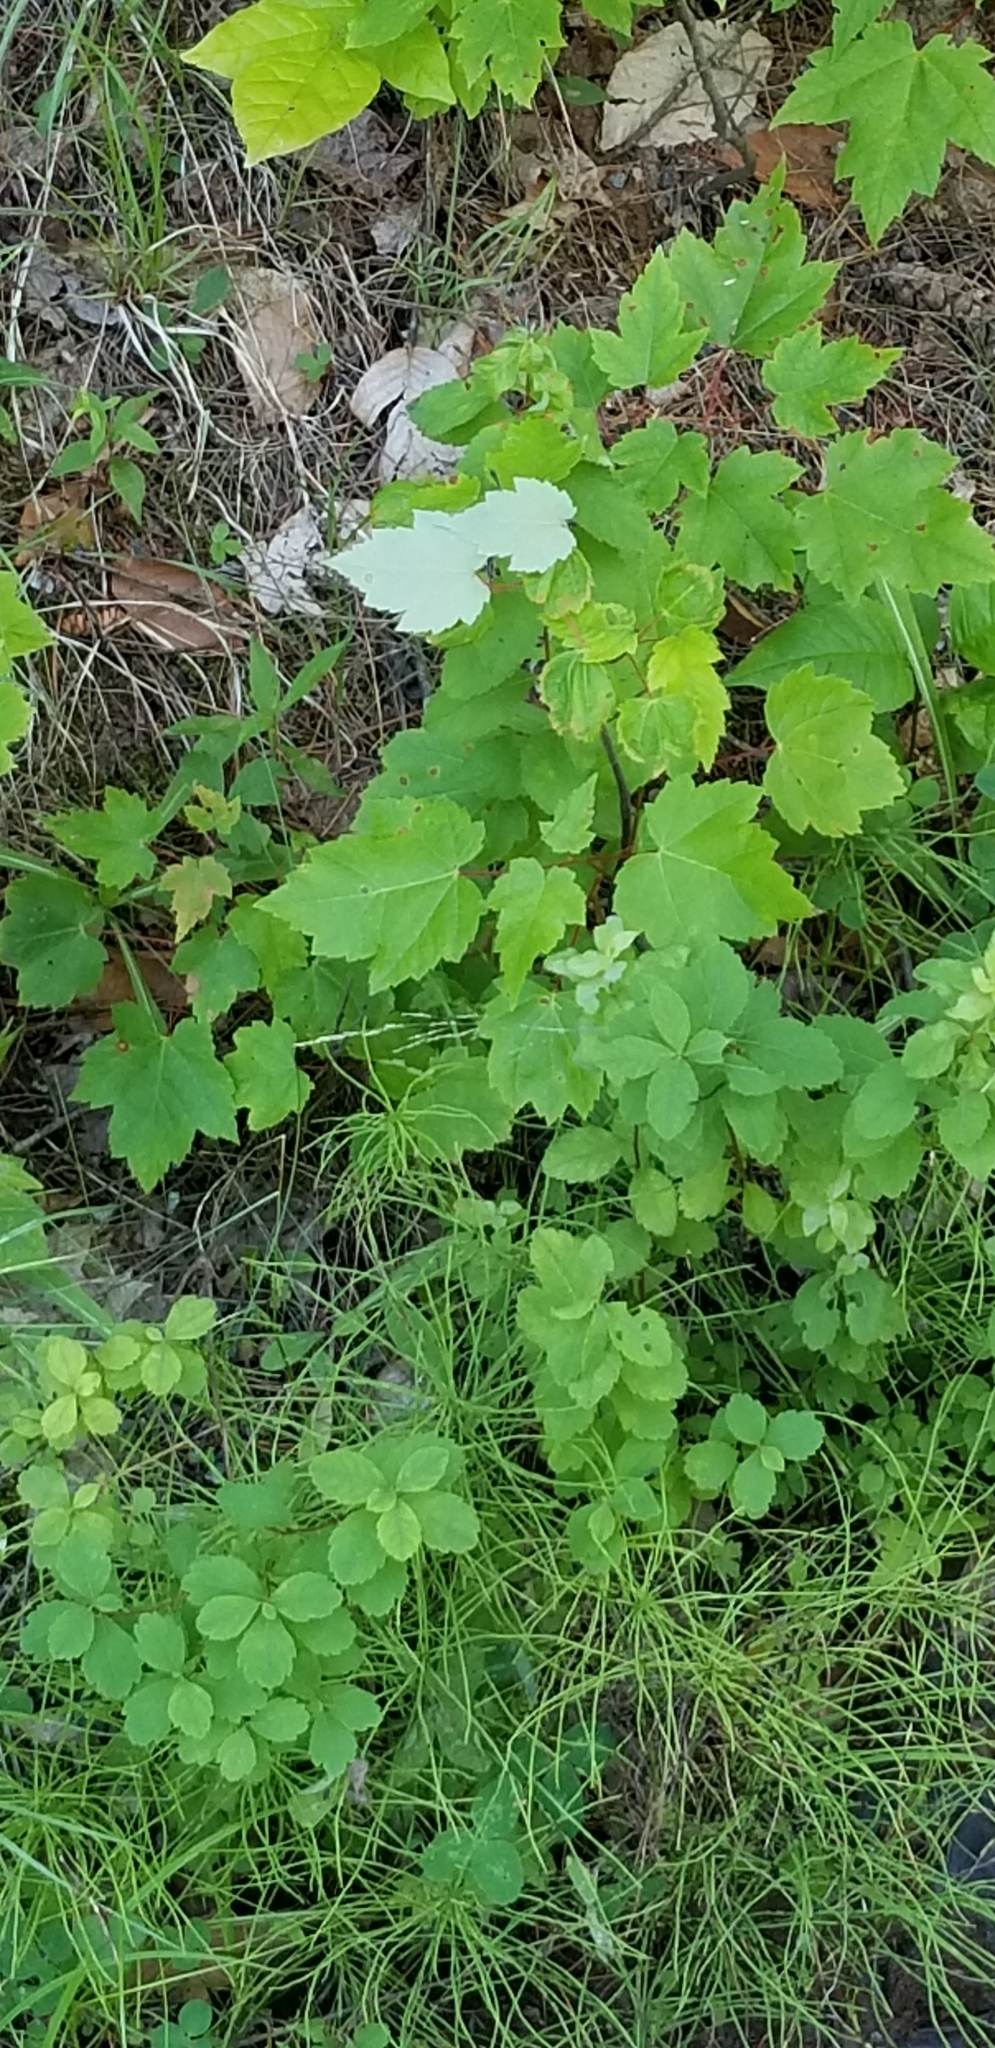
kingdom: Plantae
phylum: Tracheophyta
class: Magnoliopsida
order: Sapindales
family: Sapindaceae
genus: Acer
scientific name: Acer rubrum
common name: Red maple
